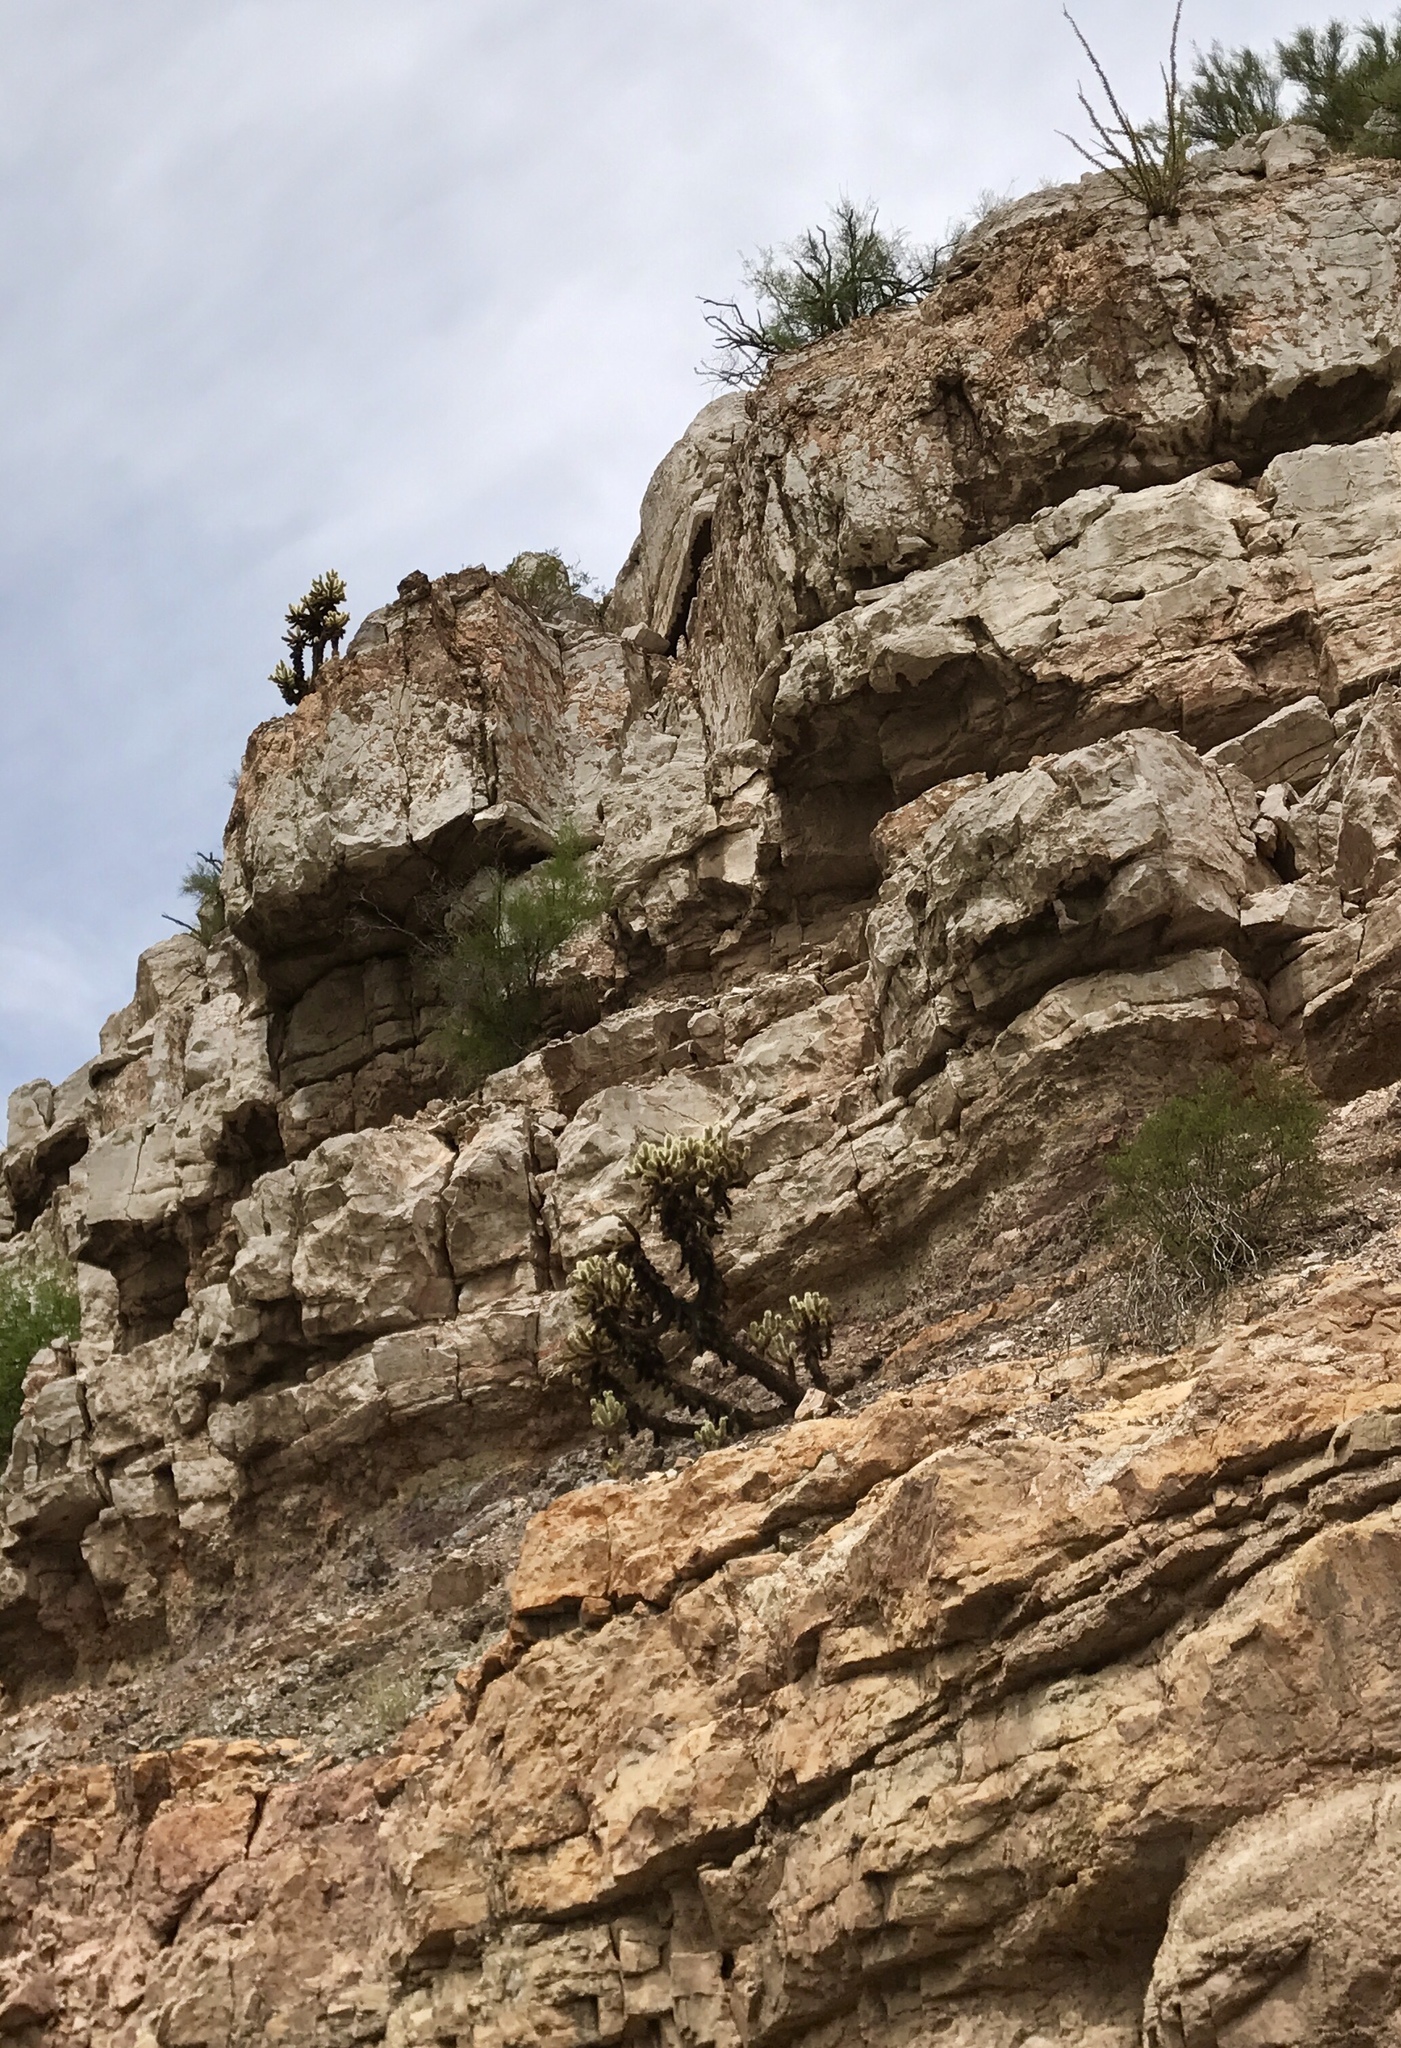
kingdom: Plantae
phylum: Tracheophyta
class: Magnoliopsida
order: Caryophyllales
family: Cactaceae
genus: Cylindropuntia
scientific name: Cylindropuntia fosbergii
